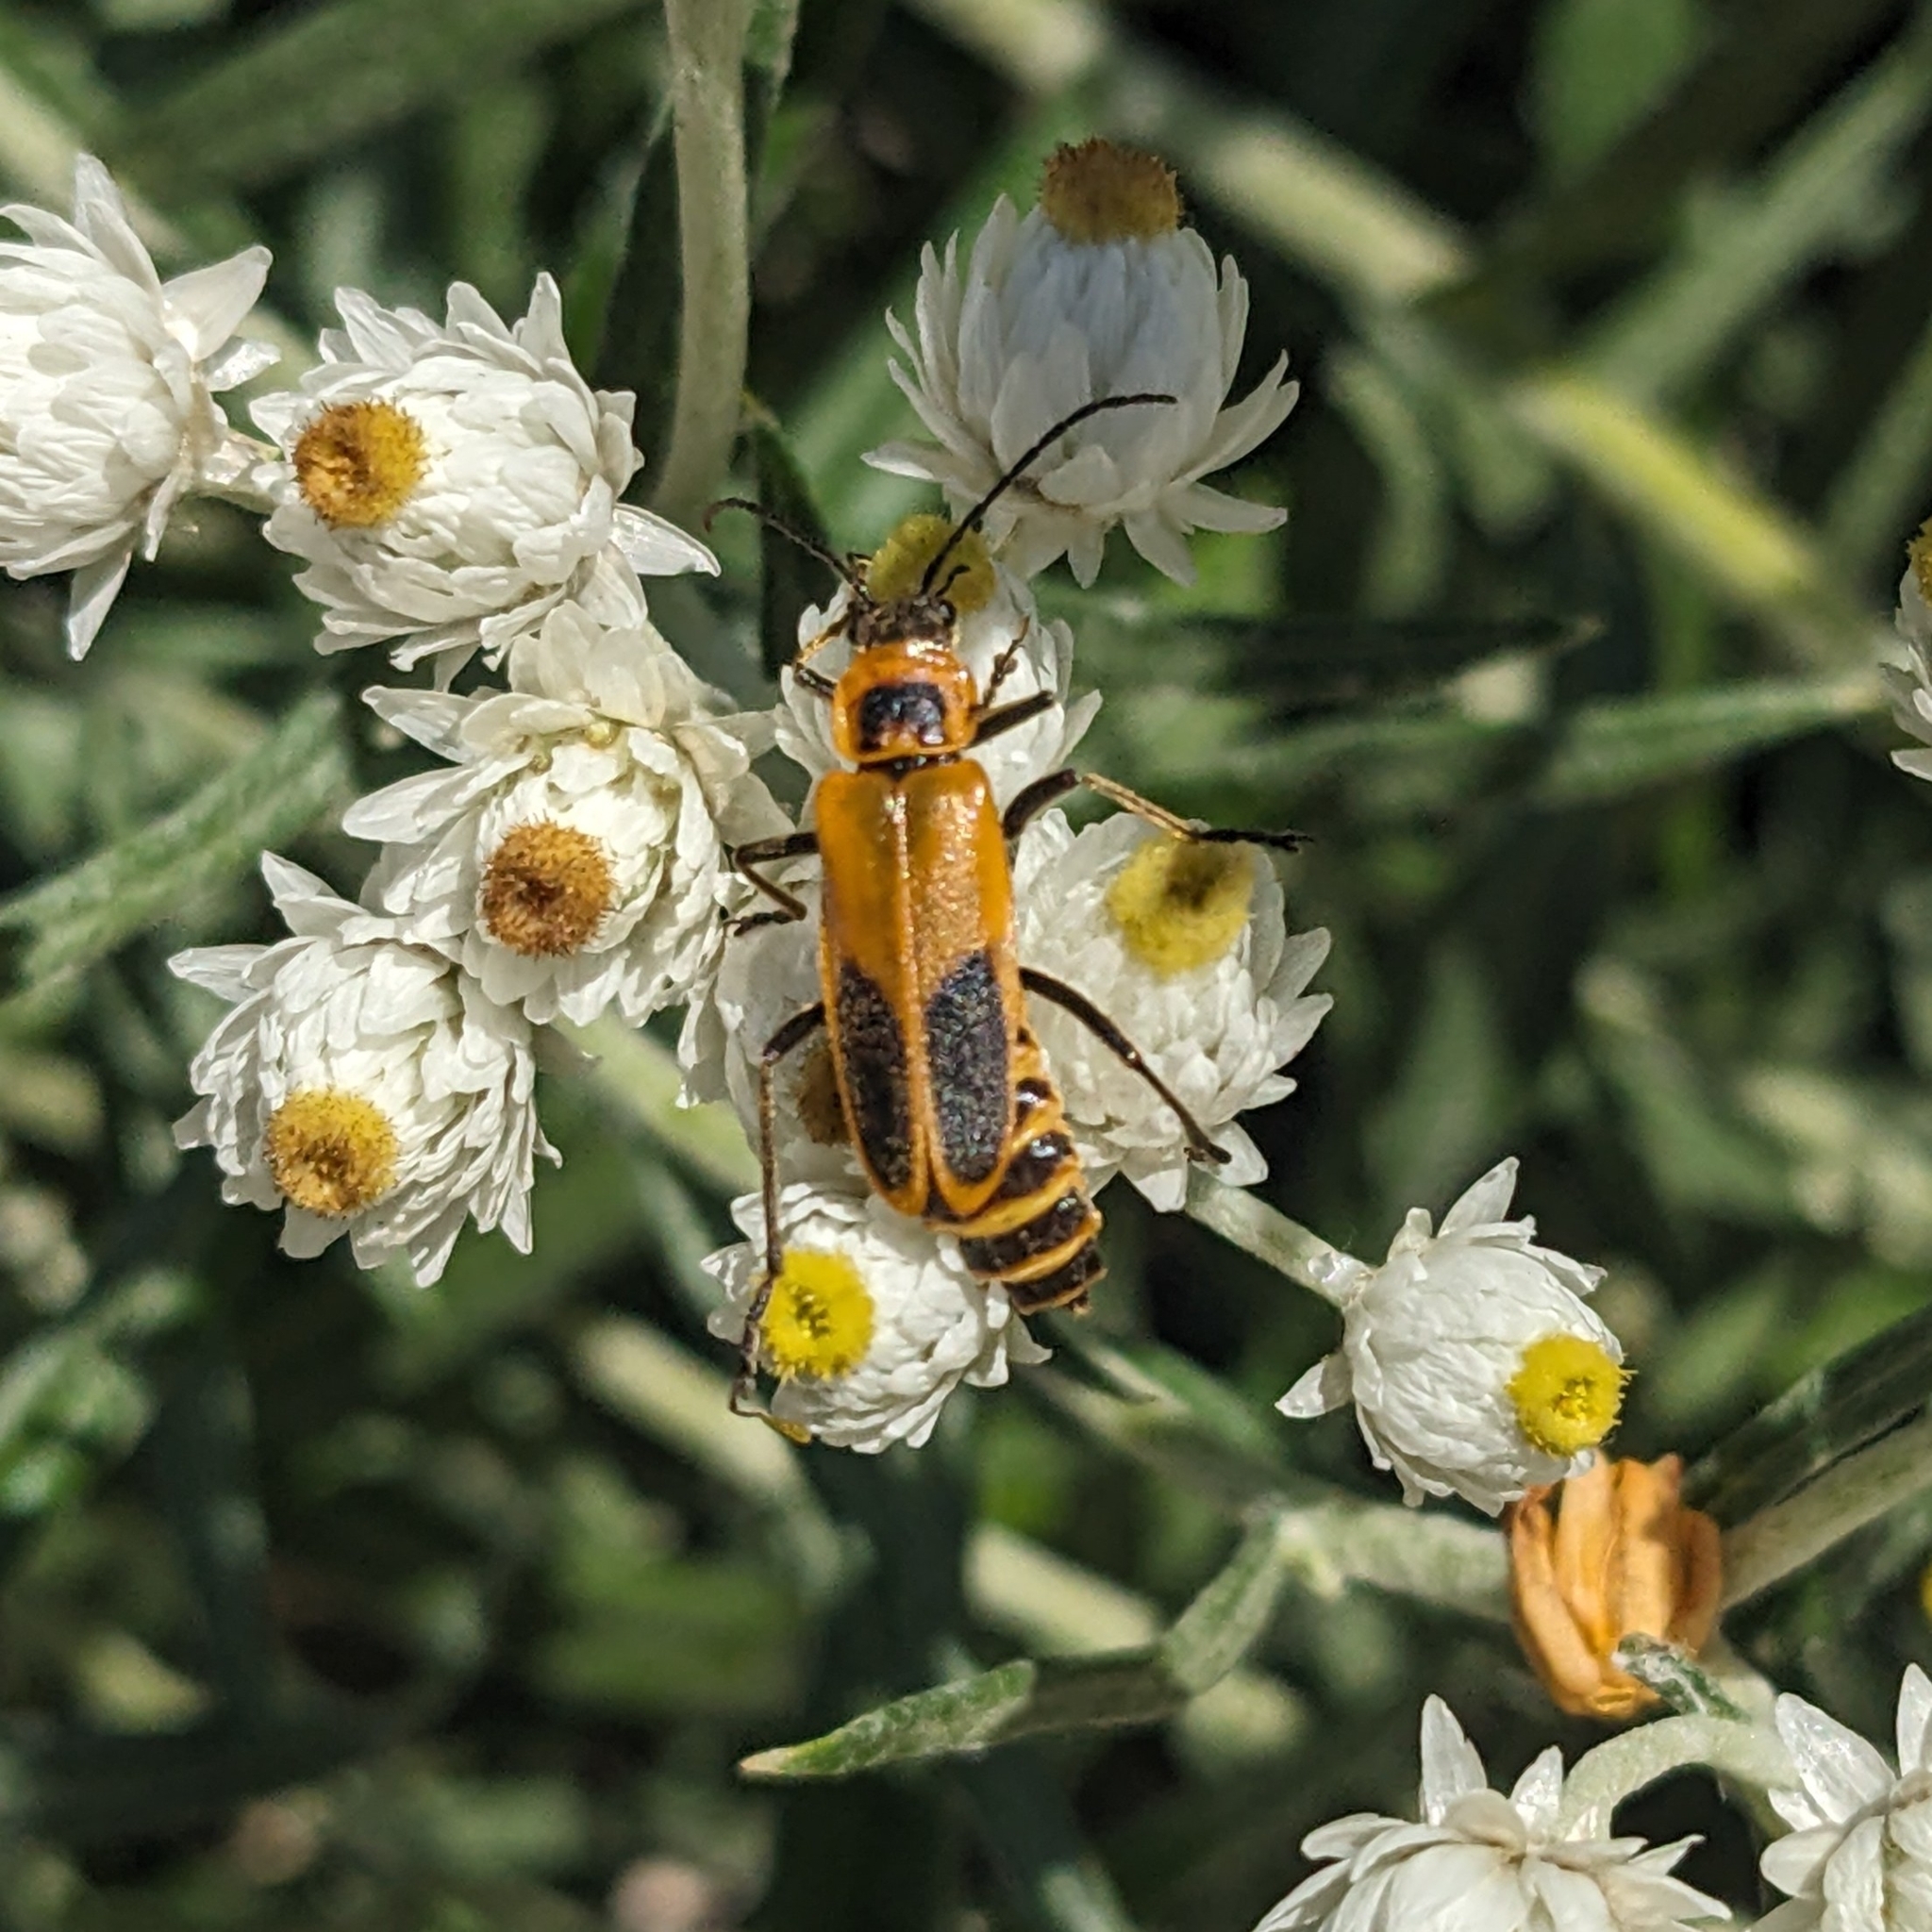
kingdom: Animalia
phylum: Arthropoda
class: Insecta
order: Coleoptera
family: Cantharidae
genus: Chauliognathus
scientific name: Chauliognathus pensylvanicus
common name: Goldenrod soldier beetle
